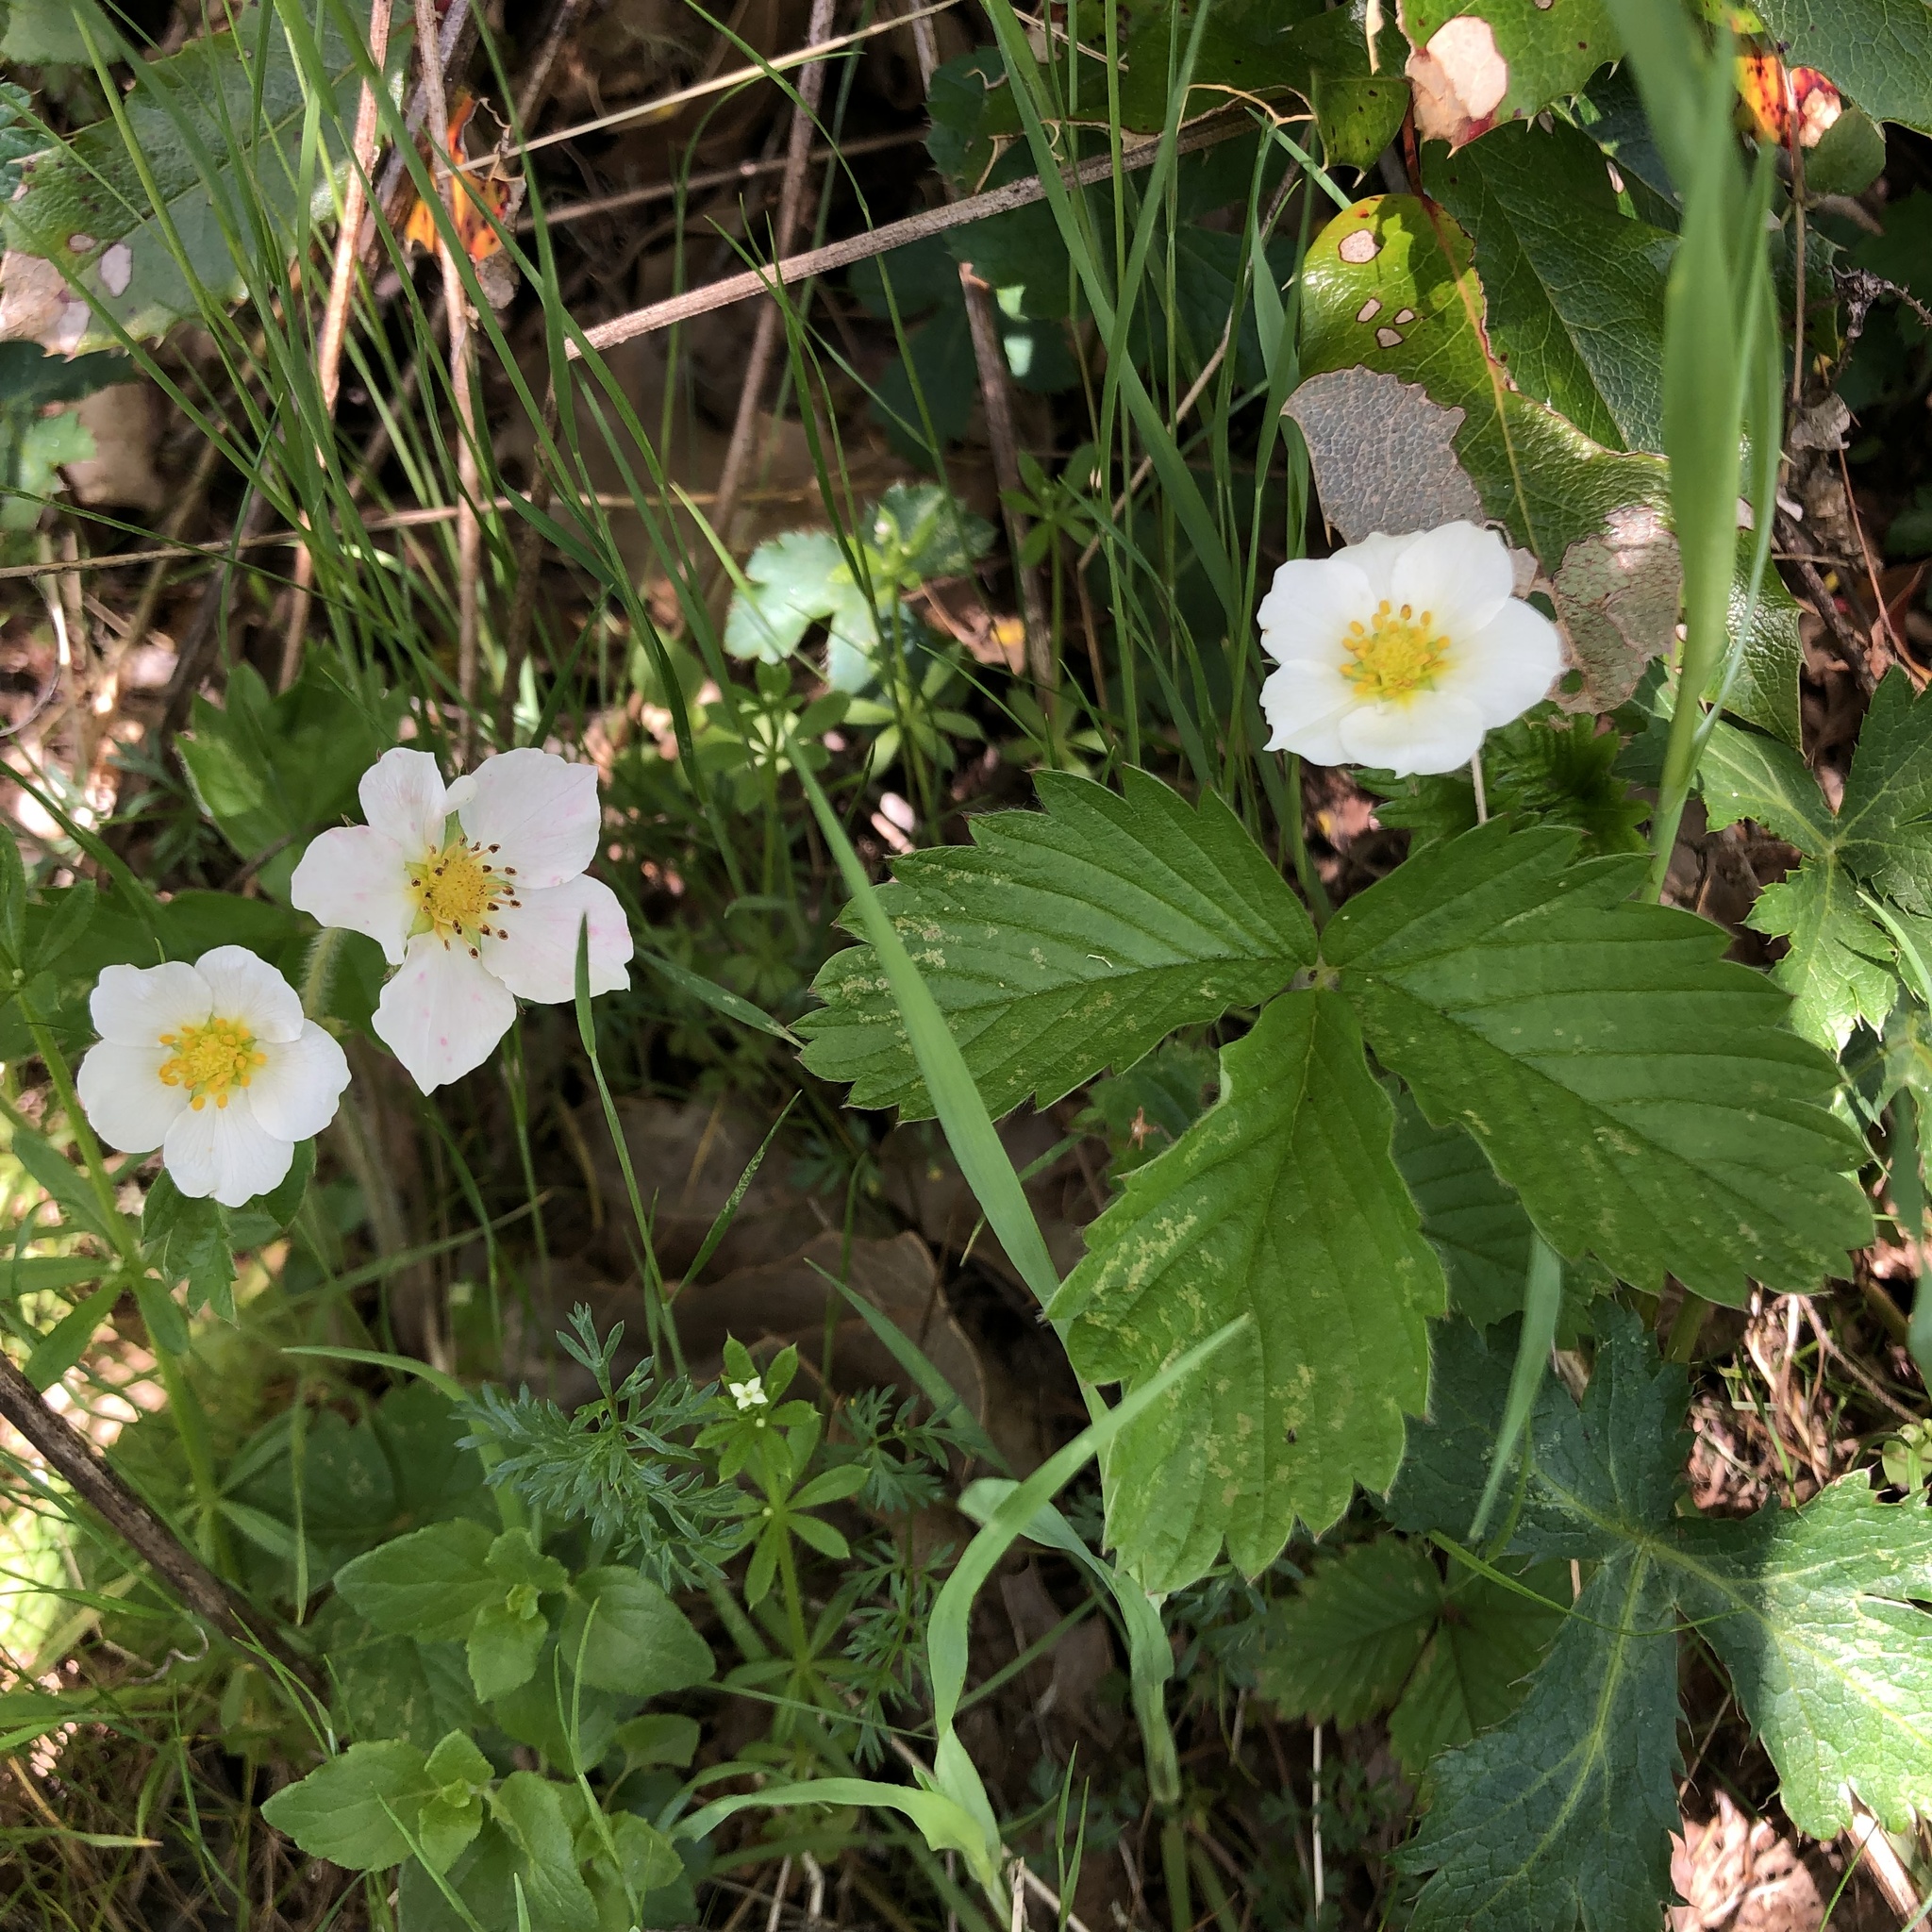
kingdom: Plantae
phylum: Tracheophyta
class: Magnoliopsida
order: Rosales
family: Rosaceae
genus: Fragaria
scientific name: Fragaria vesca
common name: Wild strawberry
